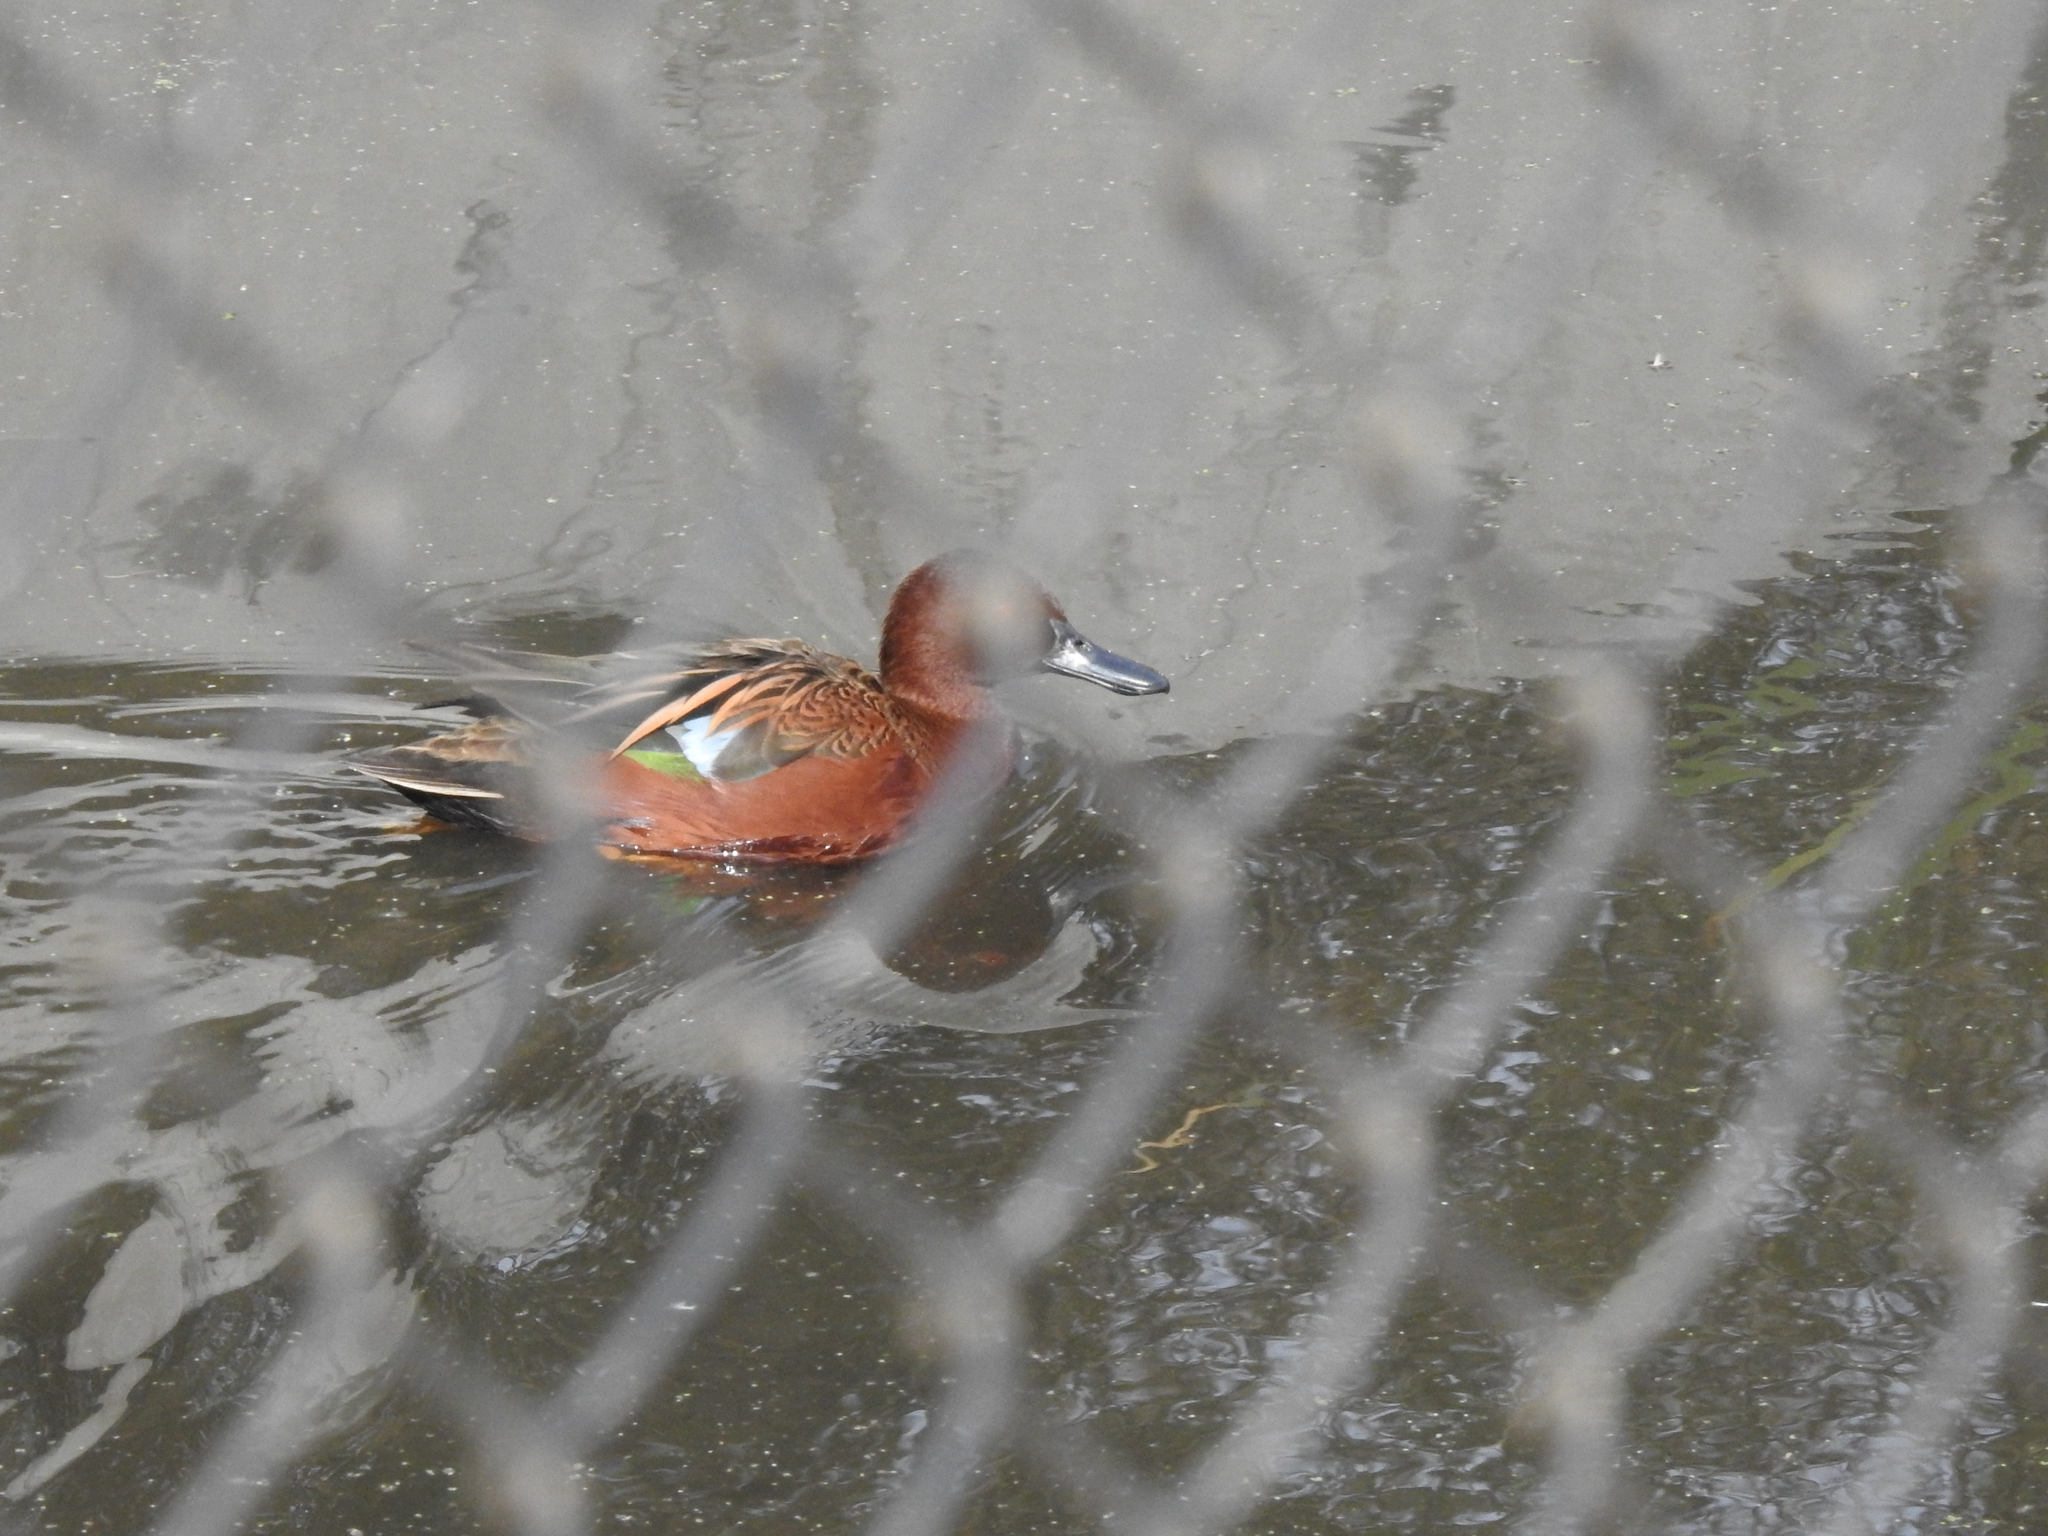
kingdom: Animalia
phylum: Chordata
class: Aves
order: Anseriformes
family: Anatidae
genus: Spatula
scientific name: Spatula cyanoptera
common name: Cinnamon teal
